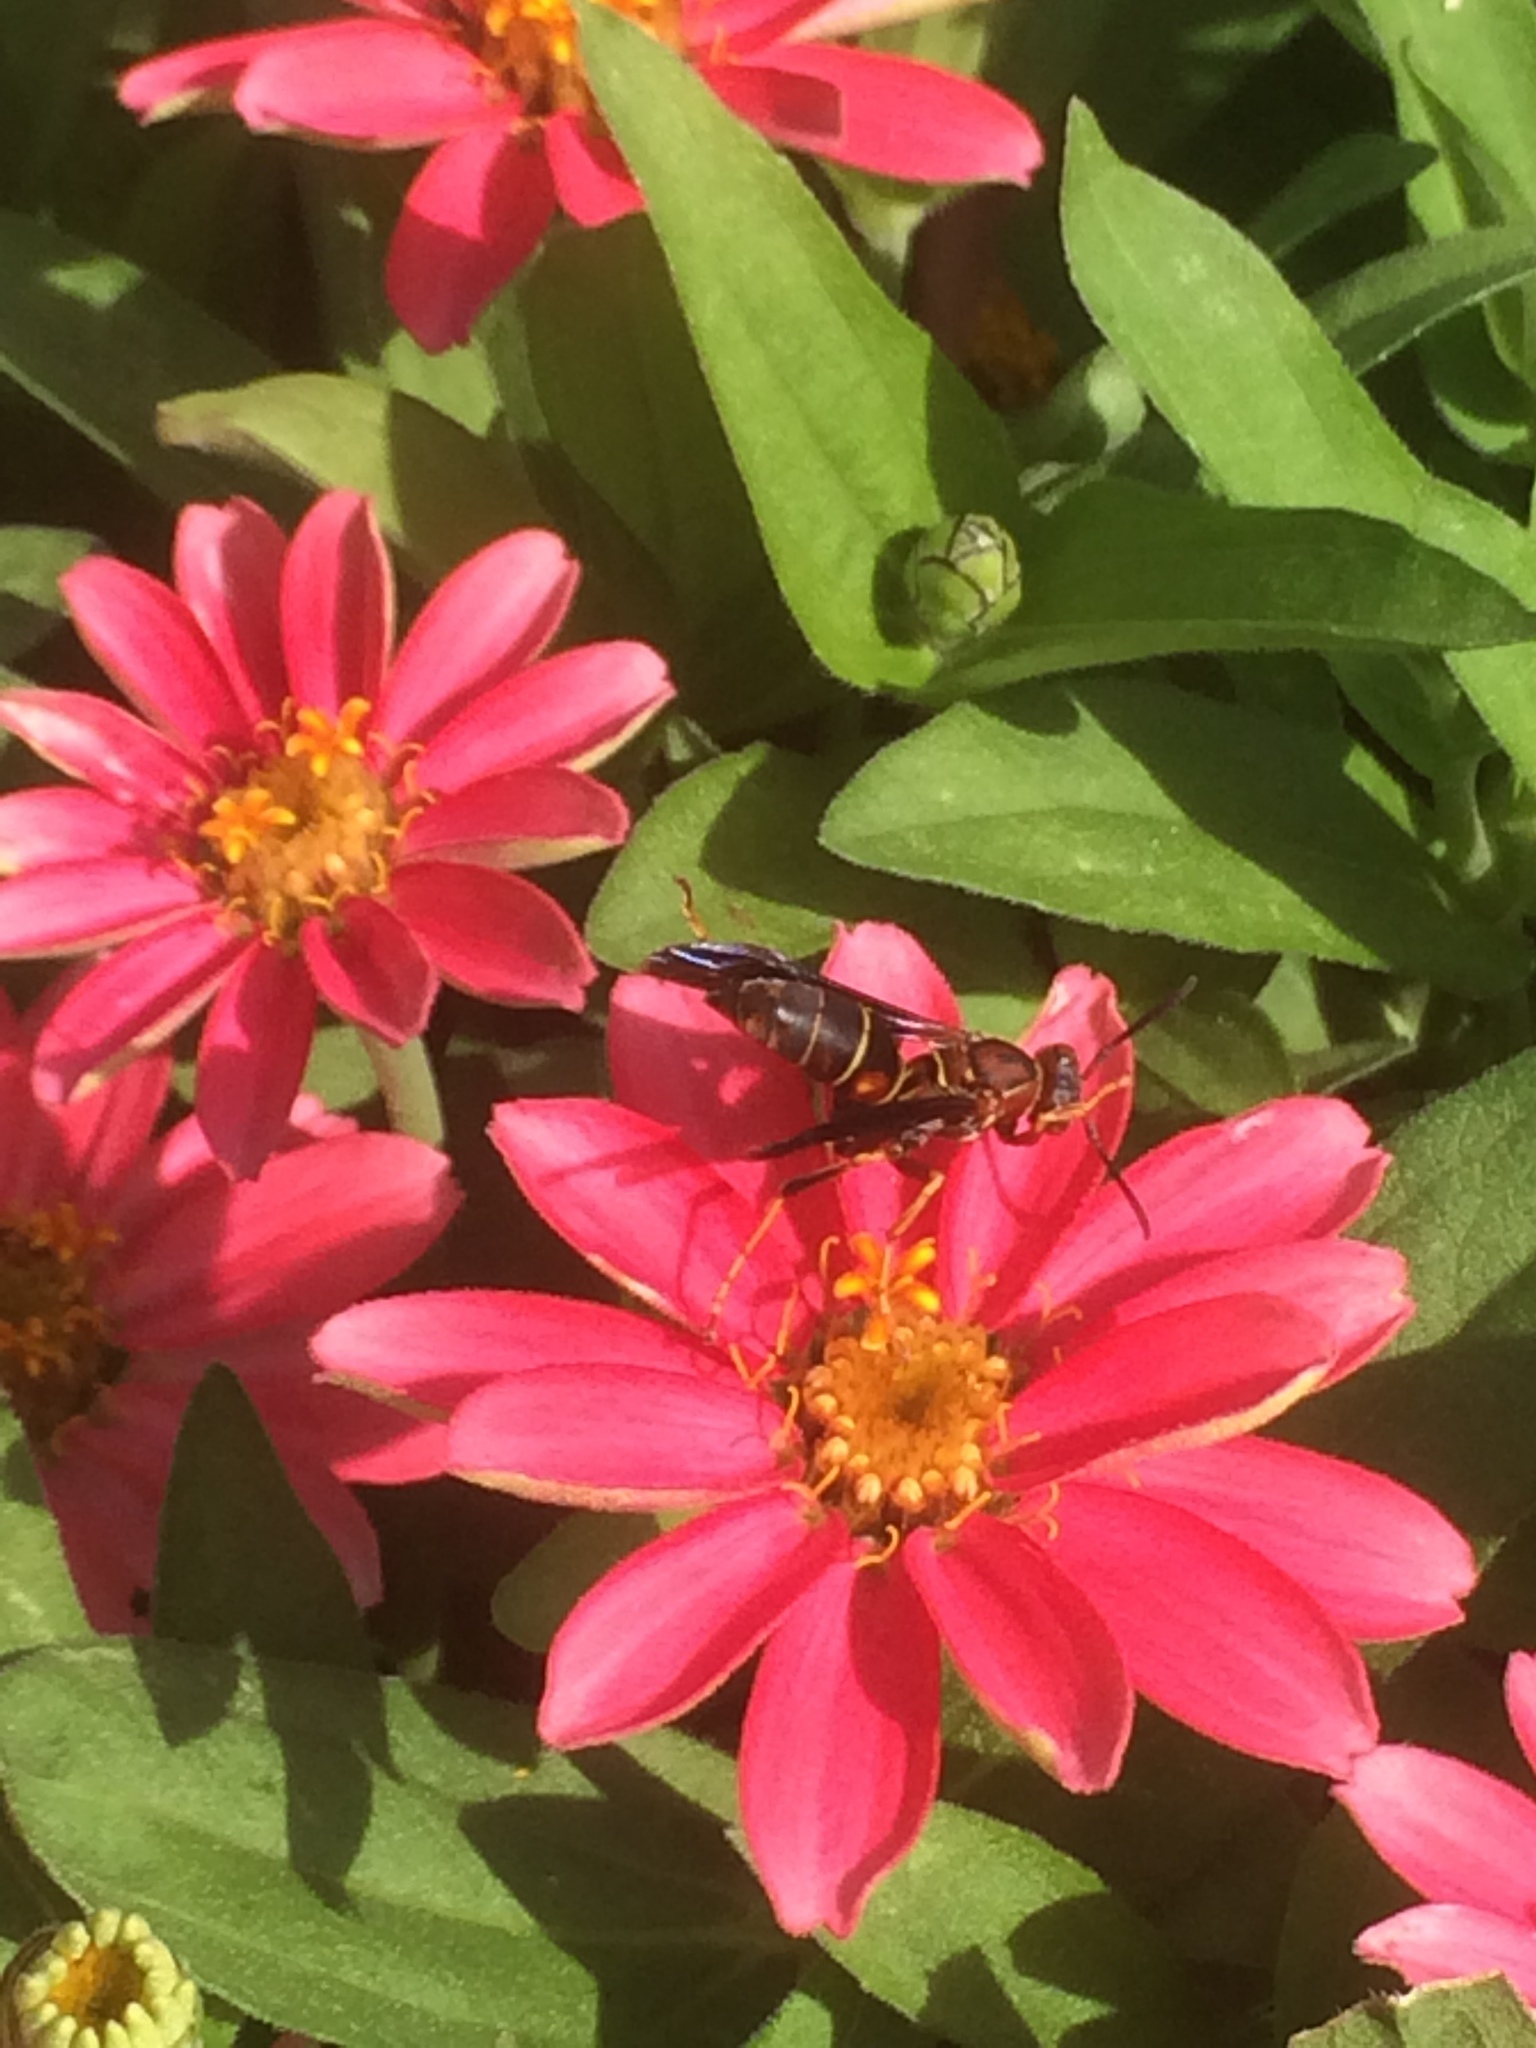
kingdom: Animalia
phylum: Arthropoda
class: Insecta
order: Hymenoptera
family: Eumenidae
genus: Polistes
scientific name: Polistes fuscatus
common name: Dark paper wasp
